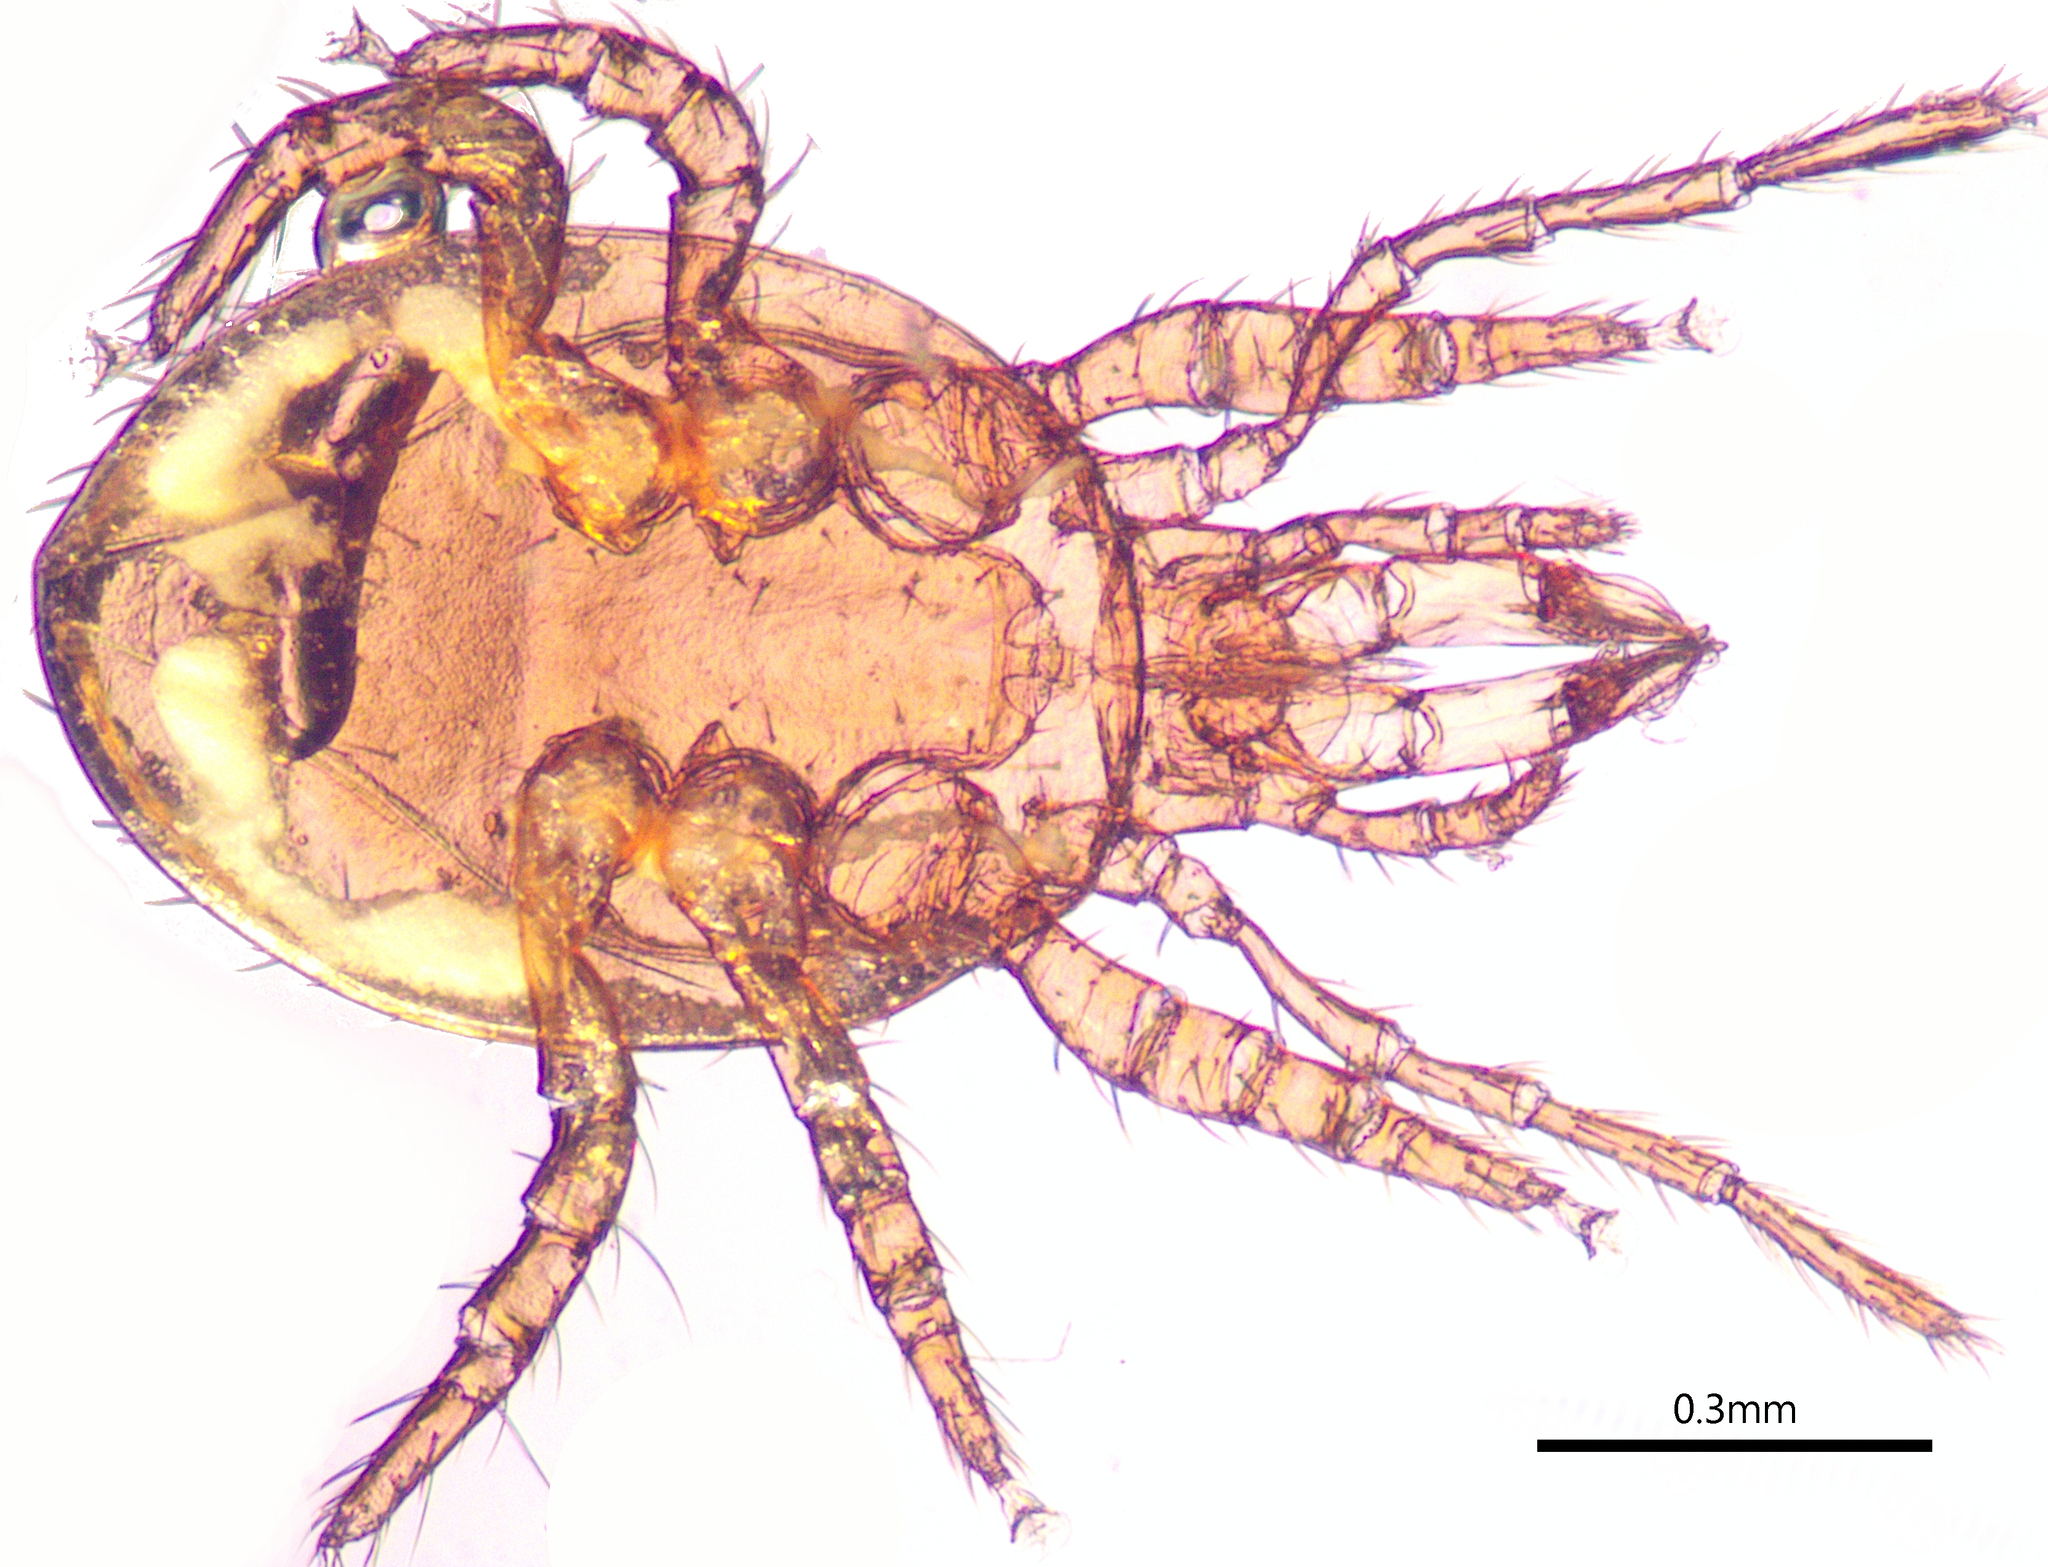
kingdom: Animalia
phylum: Arthropoda
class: Arachnida
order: Mesostigmata
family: Diplogyniidae
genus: Cryptometasternum
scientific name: Cryptometasternum
